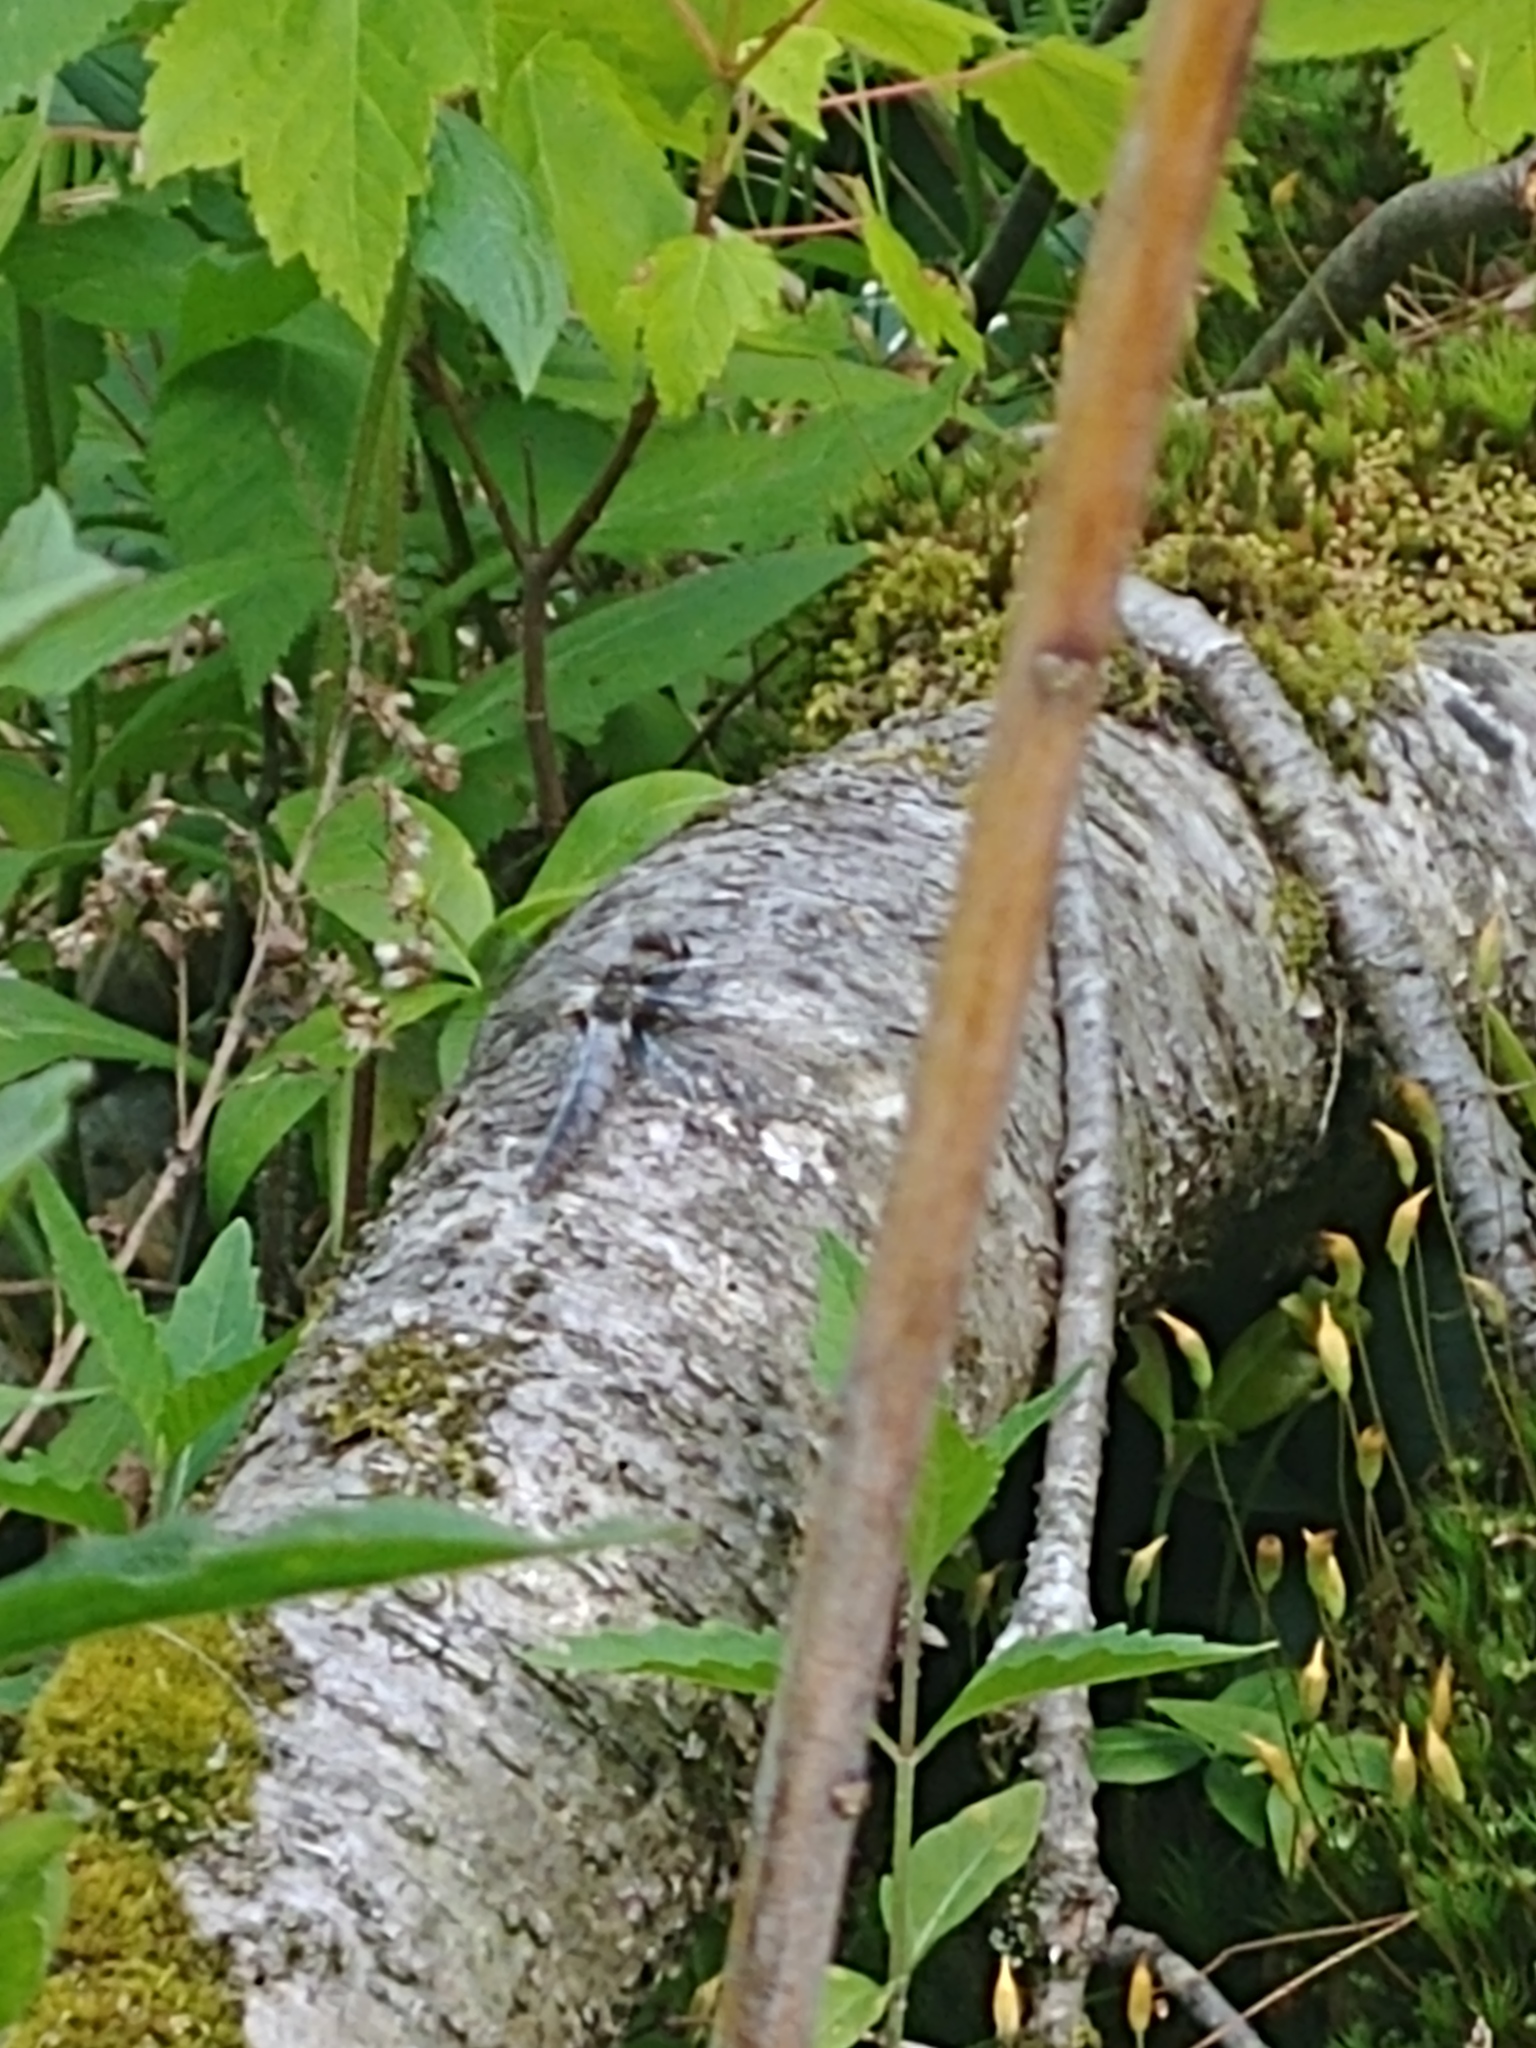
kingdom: Animalia
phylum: Arthropoda
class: Insecta
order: Odonata
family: Libellulidae
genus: Ladona
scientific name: Ladona julia
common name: Chalk-fronted corporal
